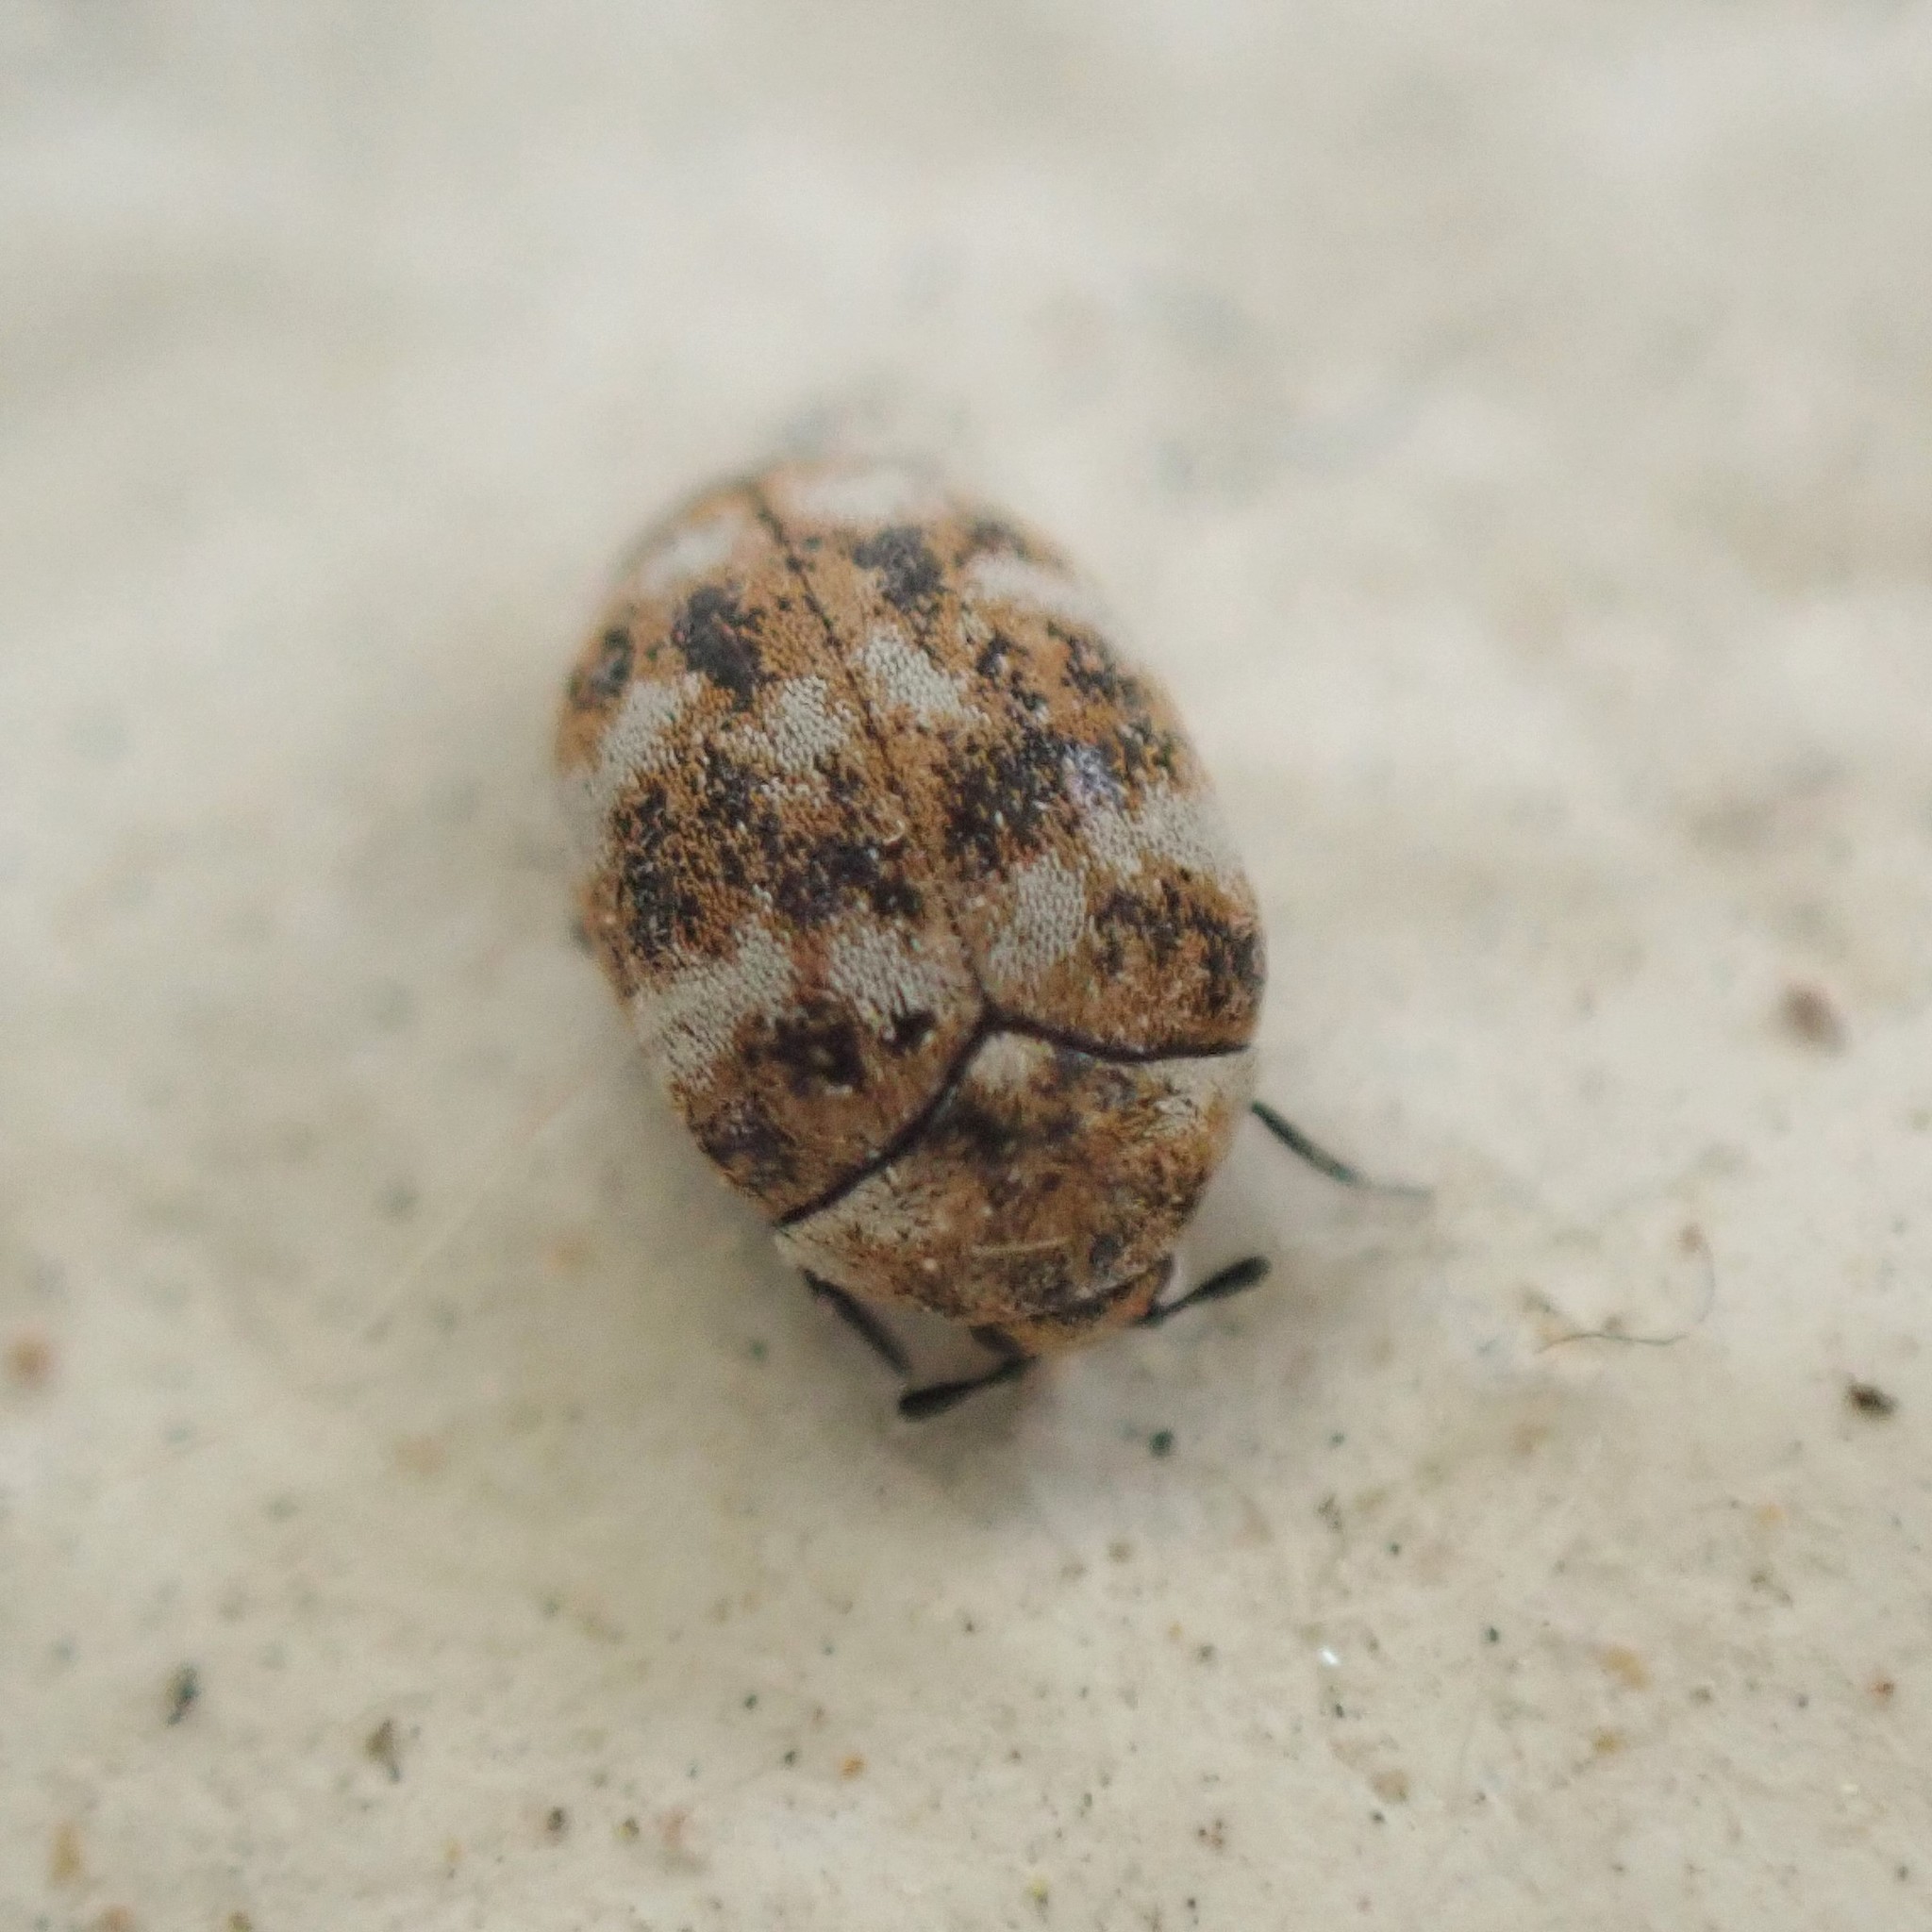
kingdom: Animalia
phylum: Arthropoda
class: Insecta
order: Coleoptera
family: Dermestidae
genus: Anthrenus
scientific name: Anthrenus verbasci
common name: Varied carpet beetle
